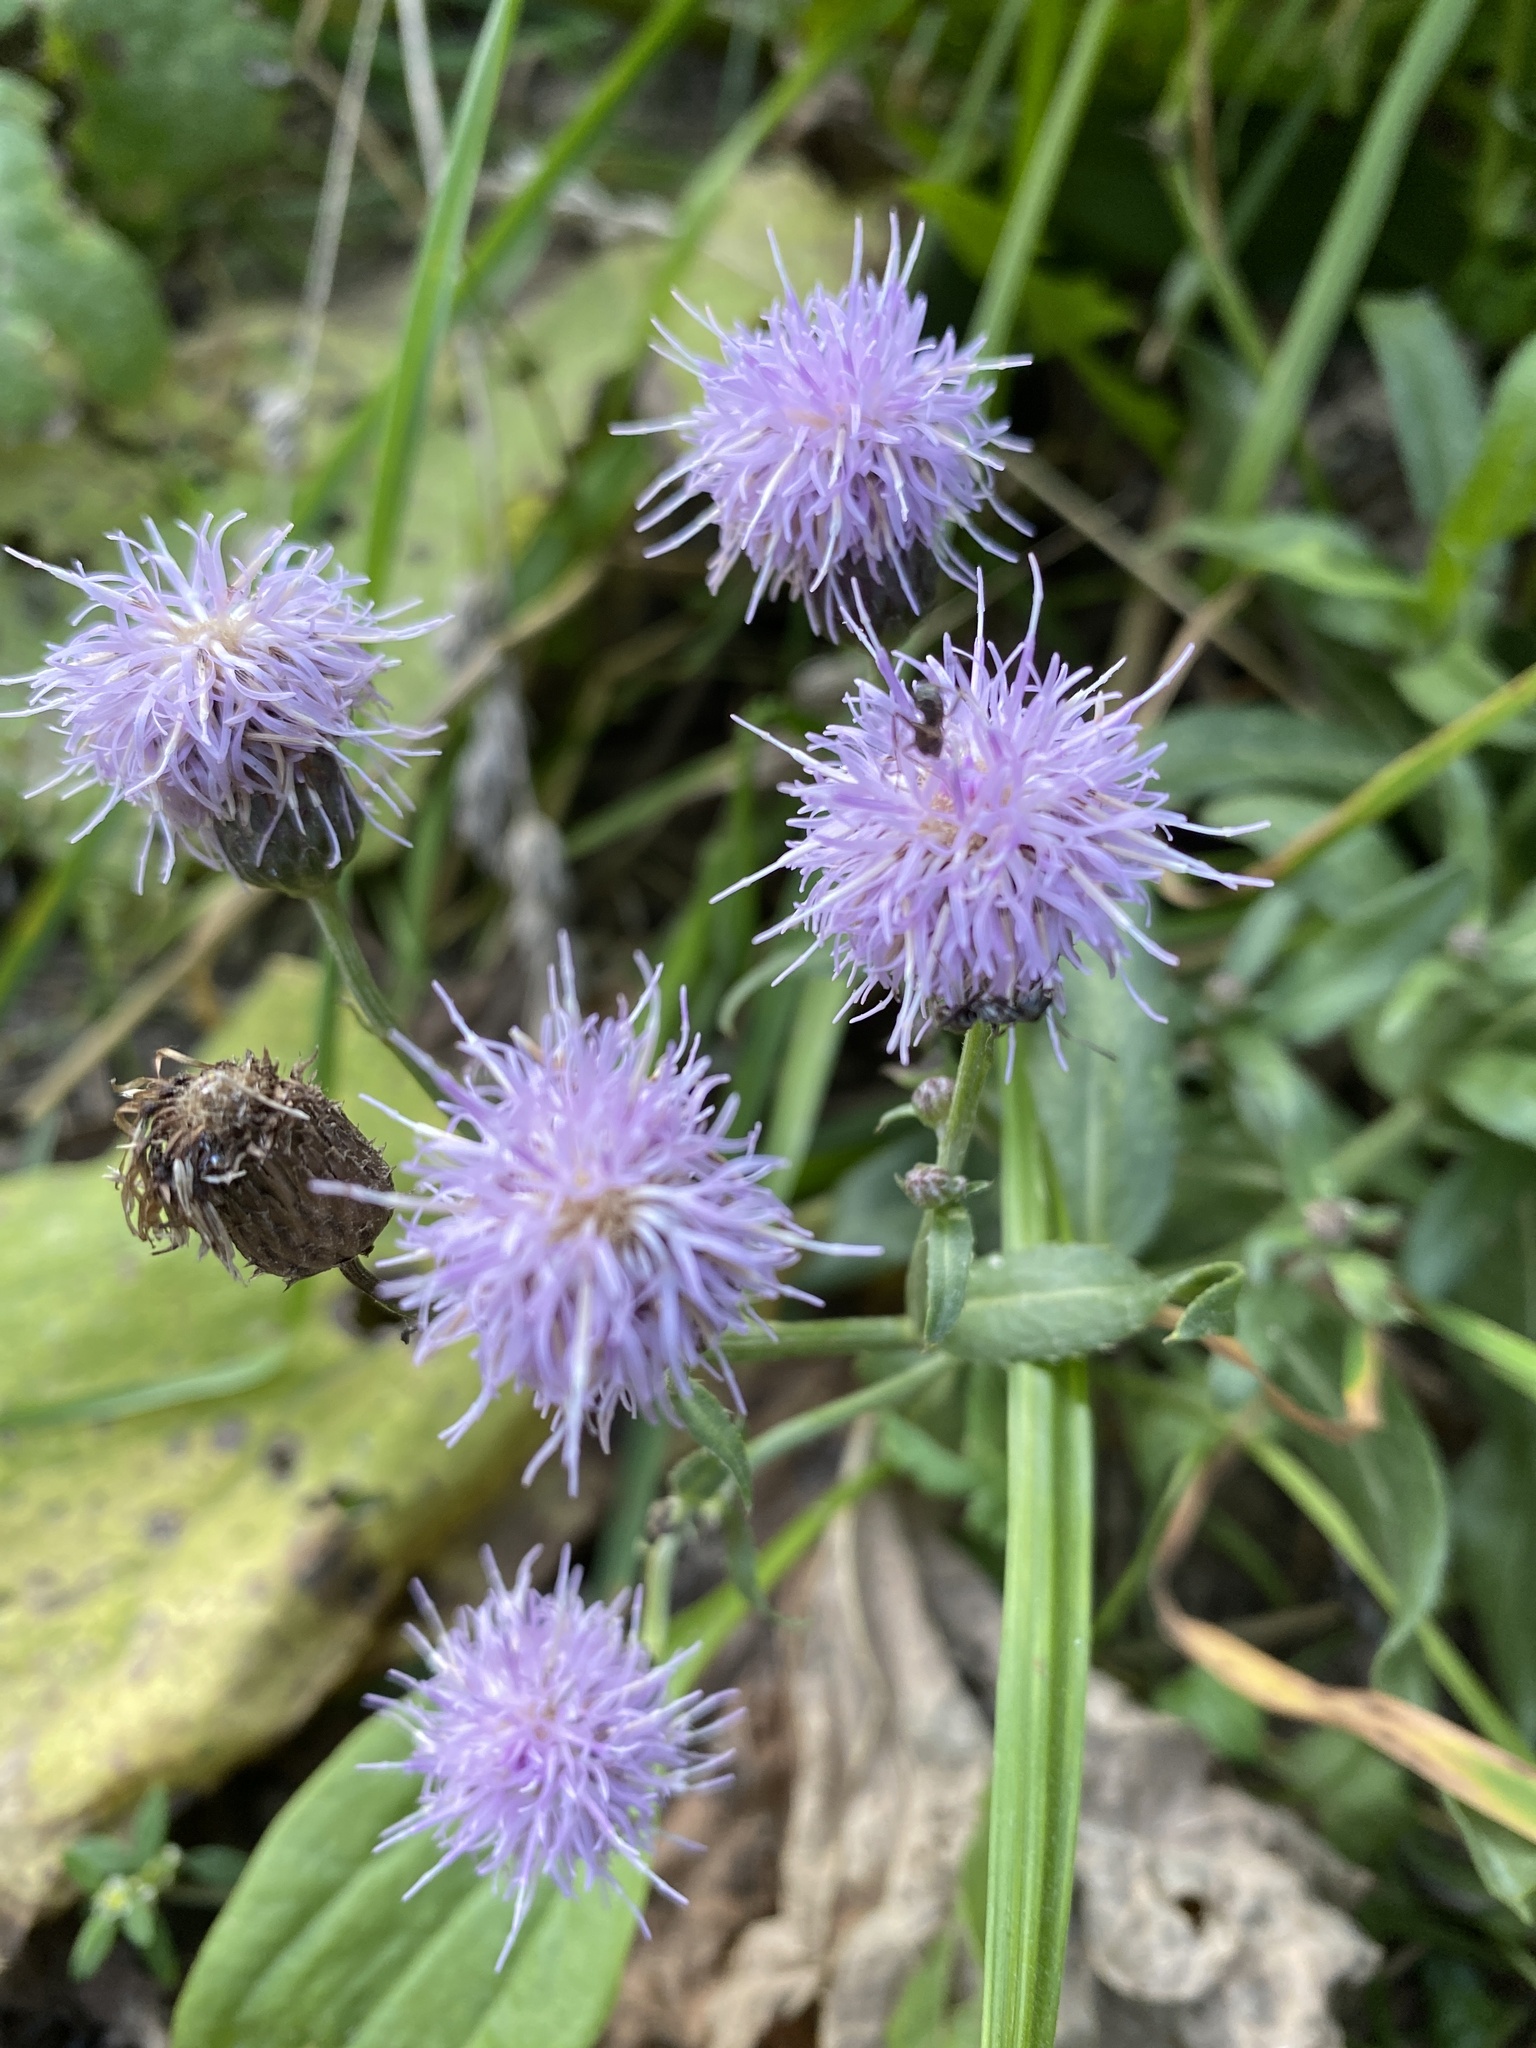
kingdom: Plantae
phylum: Tracheophyta
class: Magnoliopsida
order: Asterales
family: Asteraceae
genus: Cirsium
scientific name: Cirsium arvense
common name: Creeping thistle
